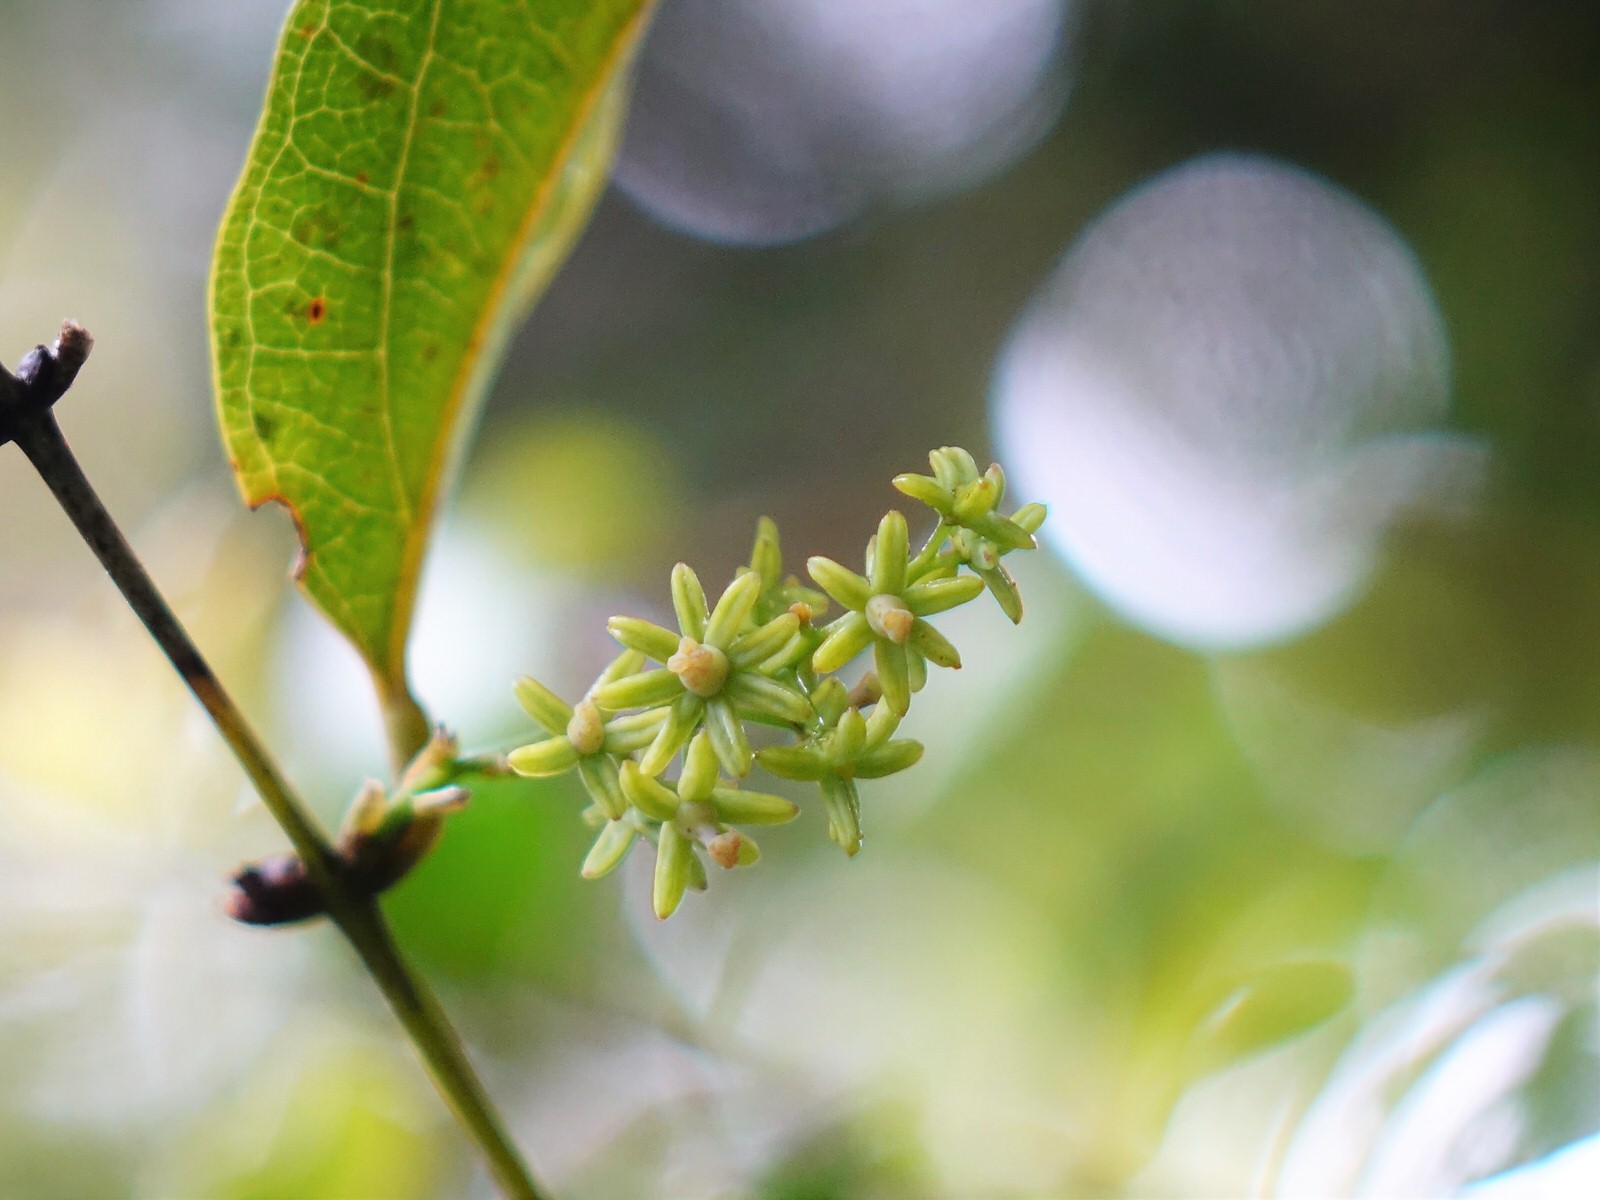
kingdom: Plantae
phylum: Tracheophyta
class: Liliopsida
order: Liliales
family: Ripogonaceae
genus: Ripogonum
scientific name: Ripogonum scandens
